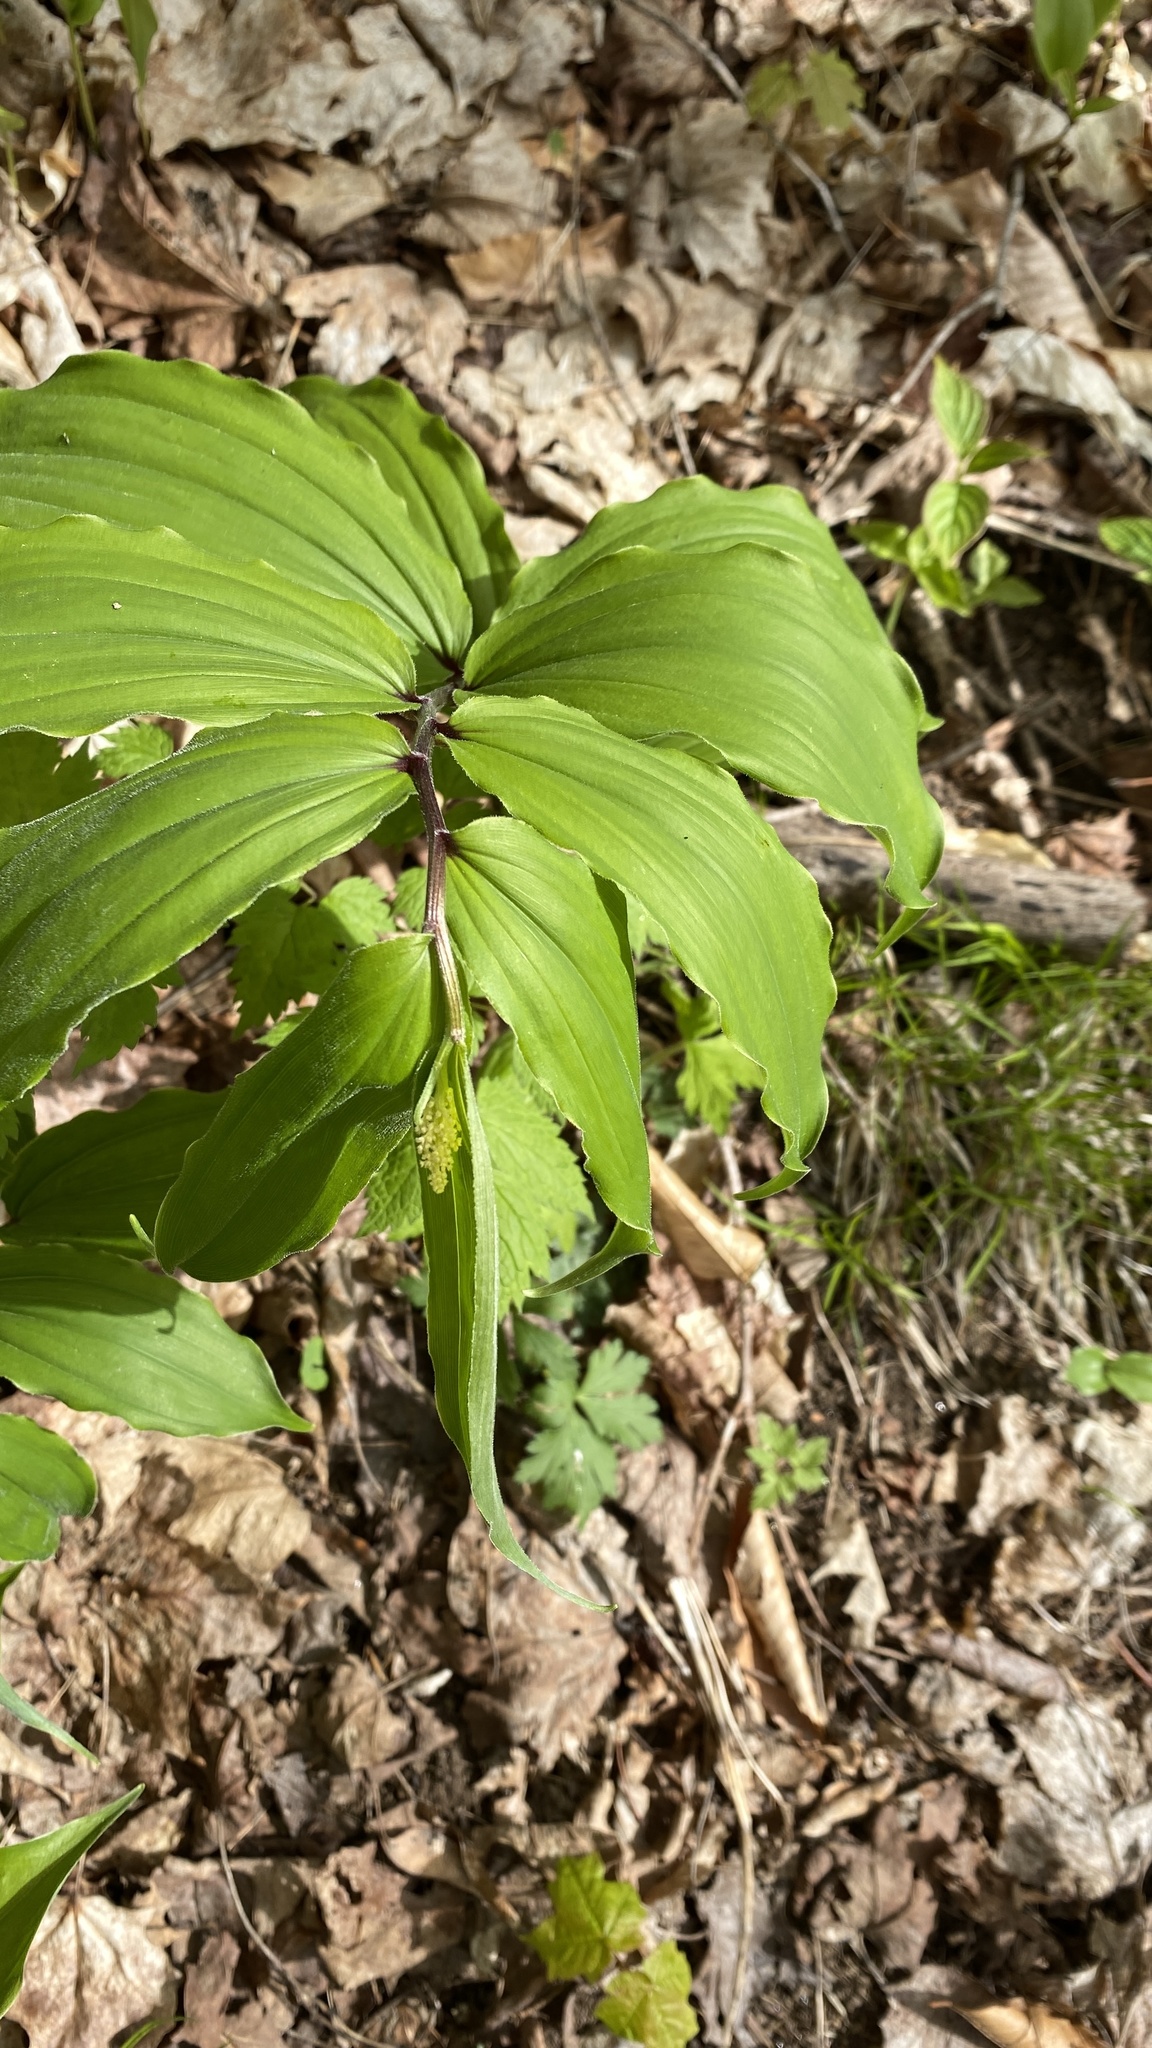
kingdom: Plantae
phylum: Tracheophyta
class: Liliopsida
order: Asparagales
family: Asparagaceae
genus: Maianthemum
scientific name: Maianthemum racemosum
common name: False spikenard
